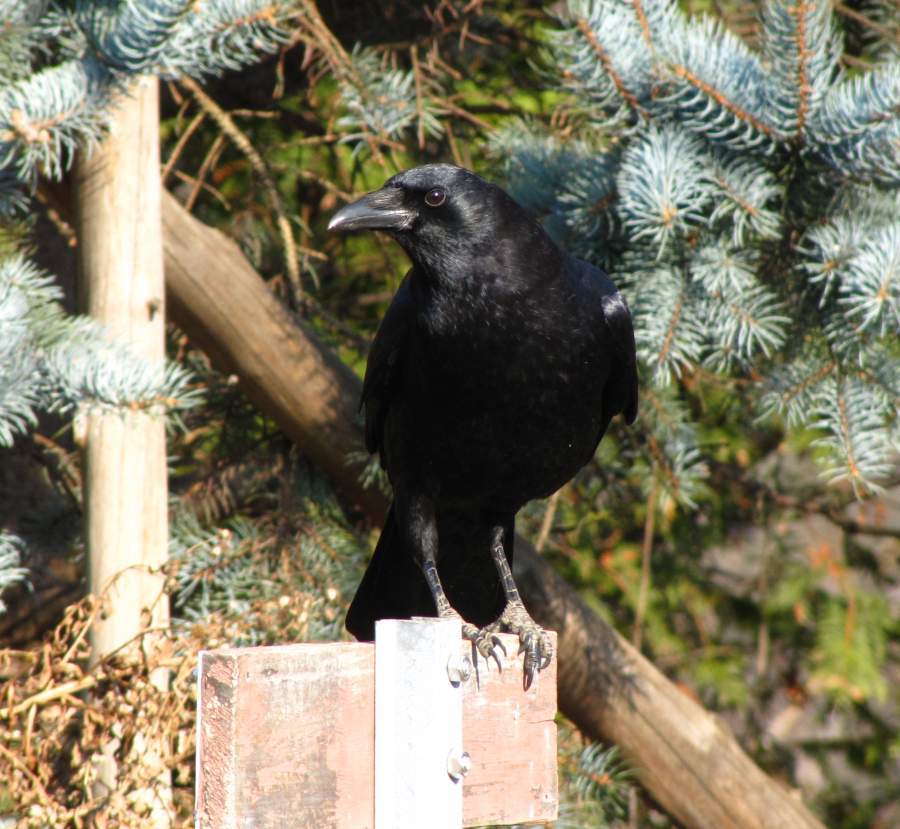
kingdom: Animalia
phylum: Chordata
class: Aves
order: Passeriformes
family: Corvidae
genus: Corvus
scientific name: Corvus brachyrhynchos
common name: American crow
